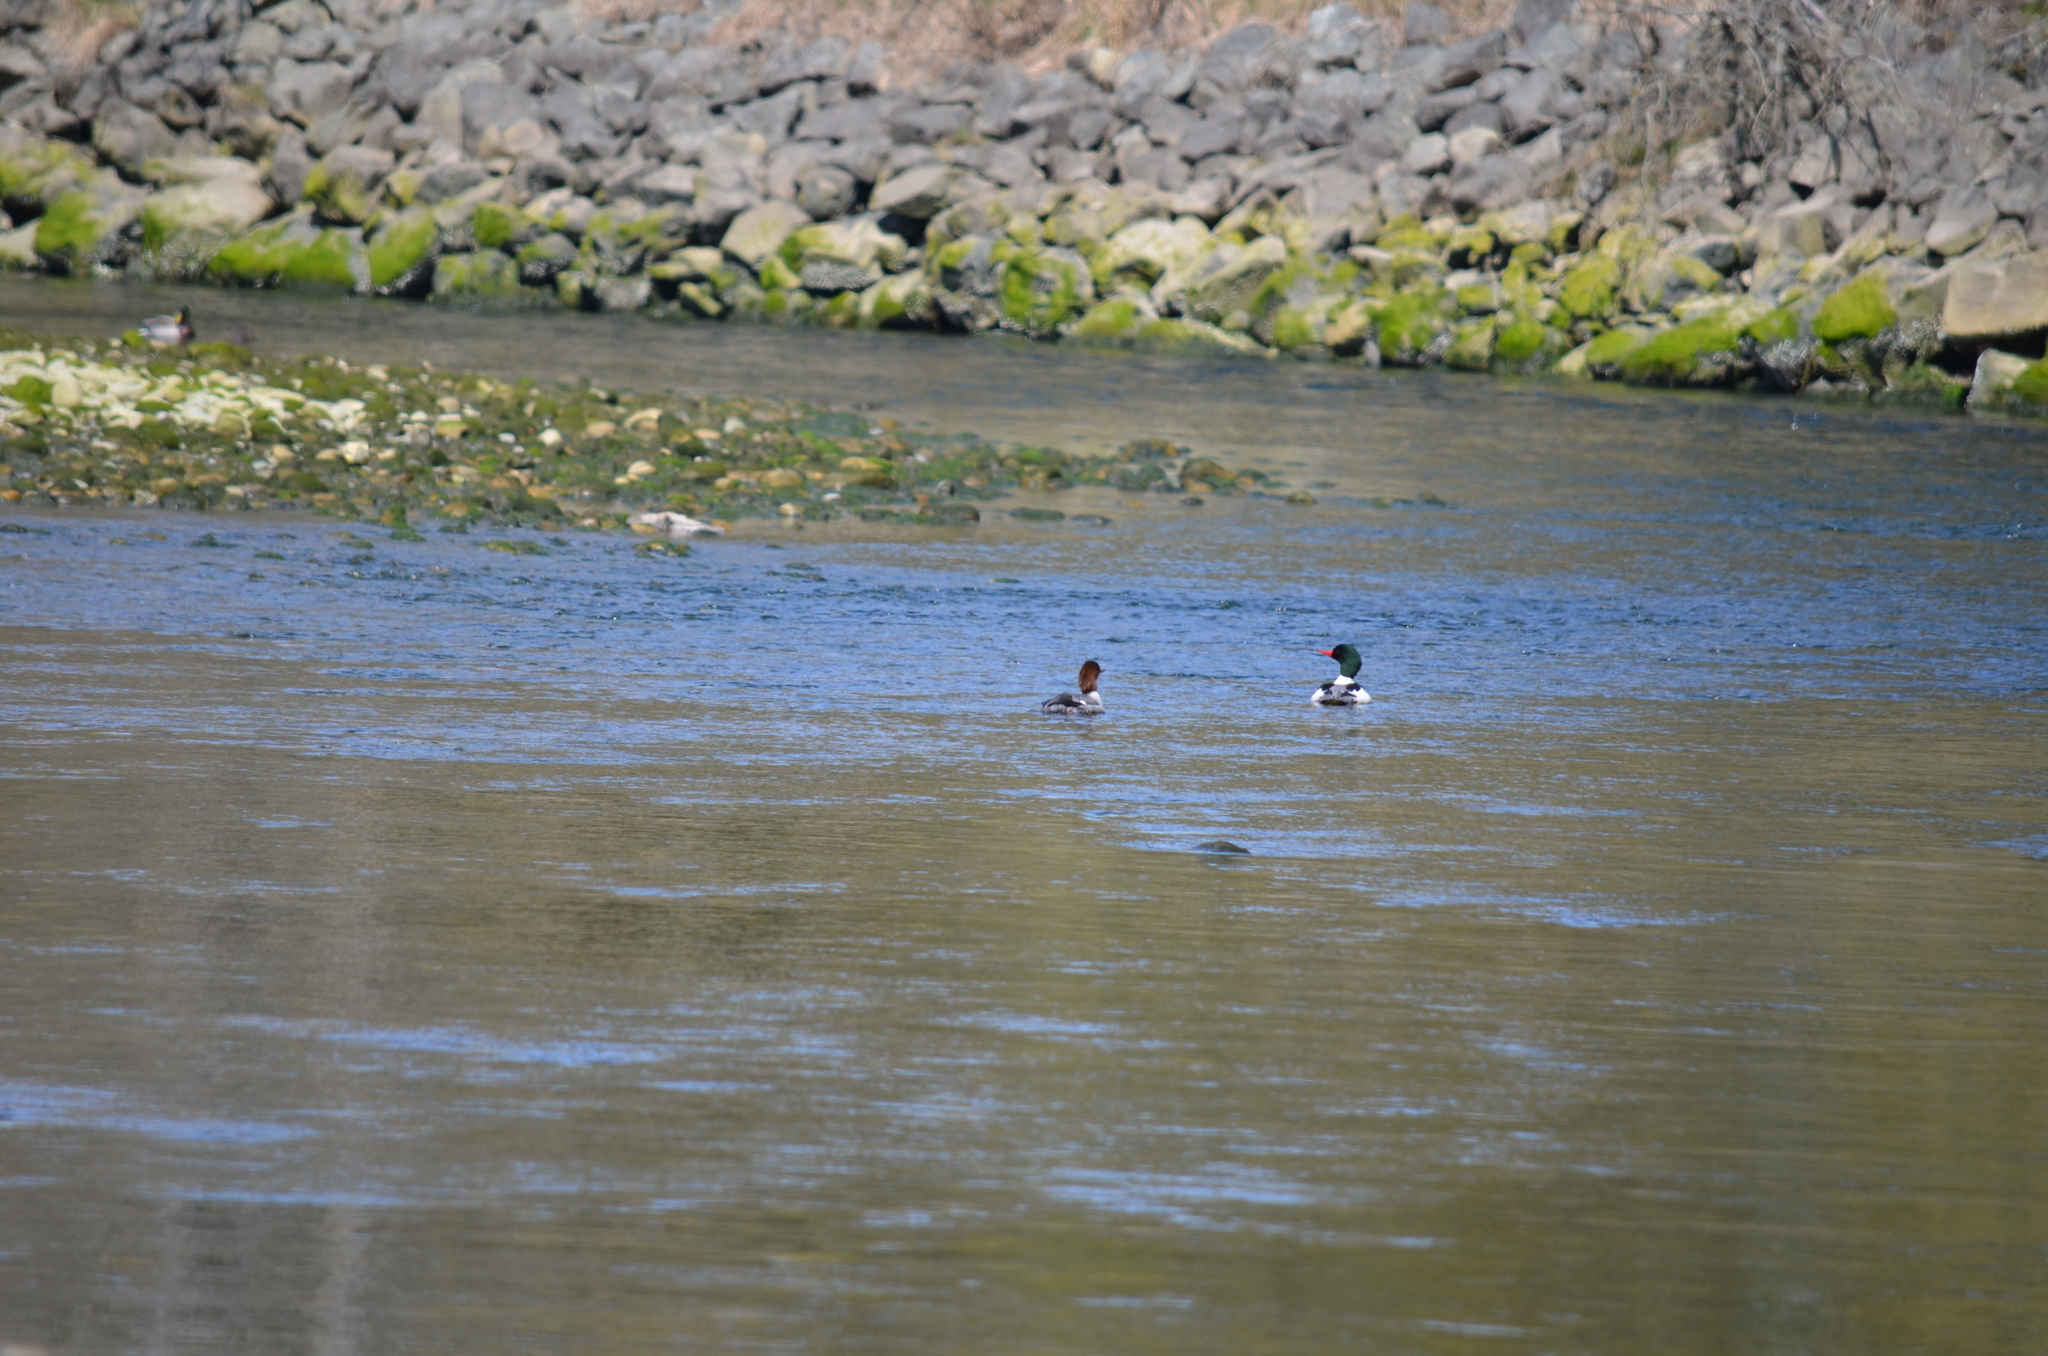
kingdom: Animalia
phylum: Chordata
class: Aves
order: Anseriformes
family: Anatidae
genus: Mergus
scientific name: Mergus merganser
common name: Common merganser
